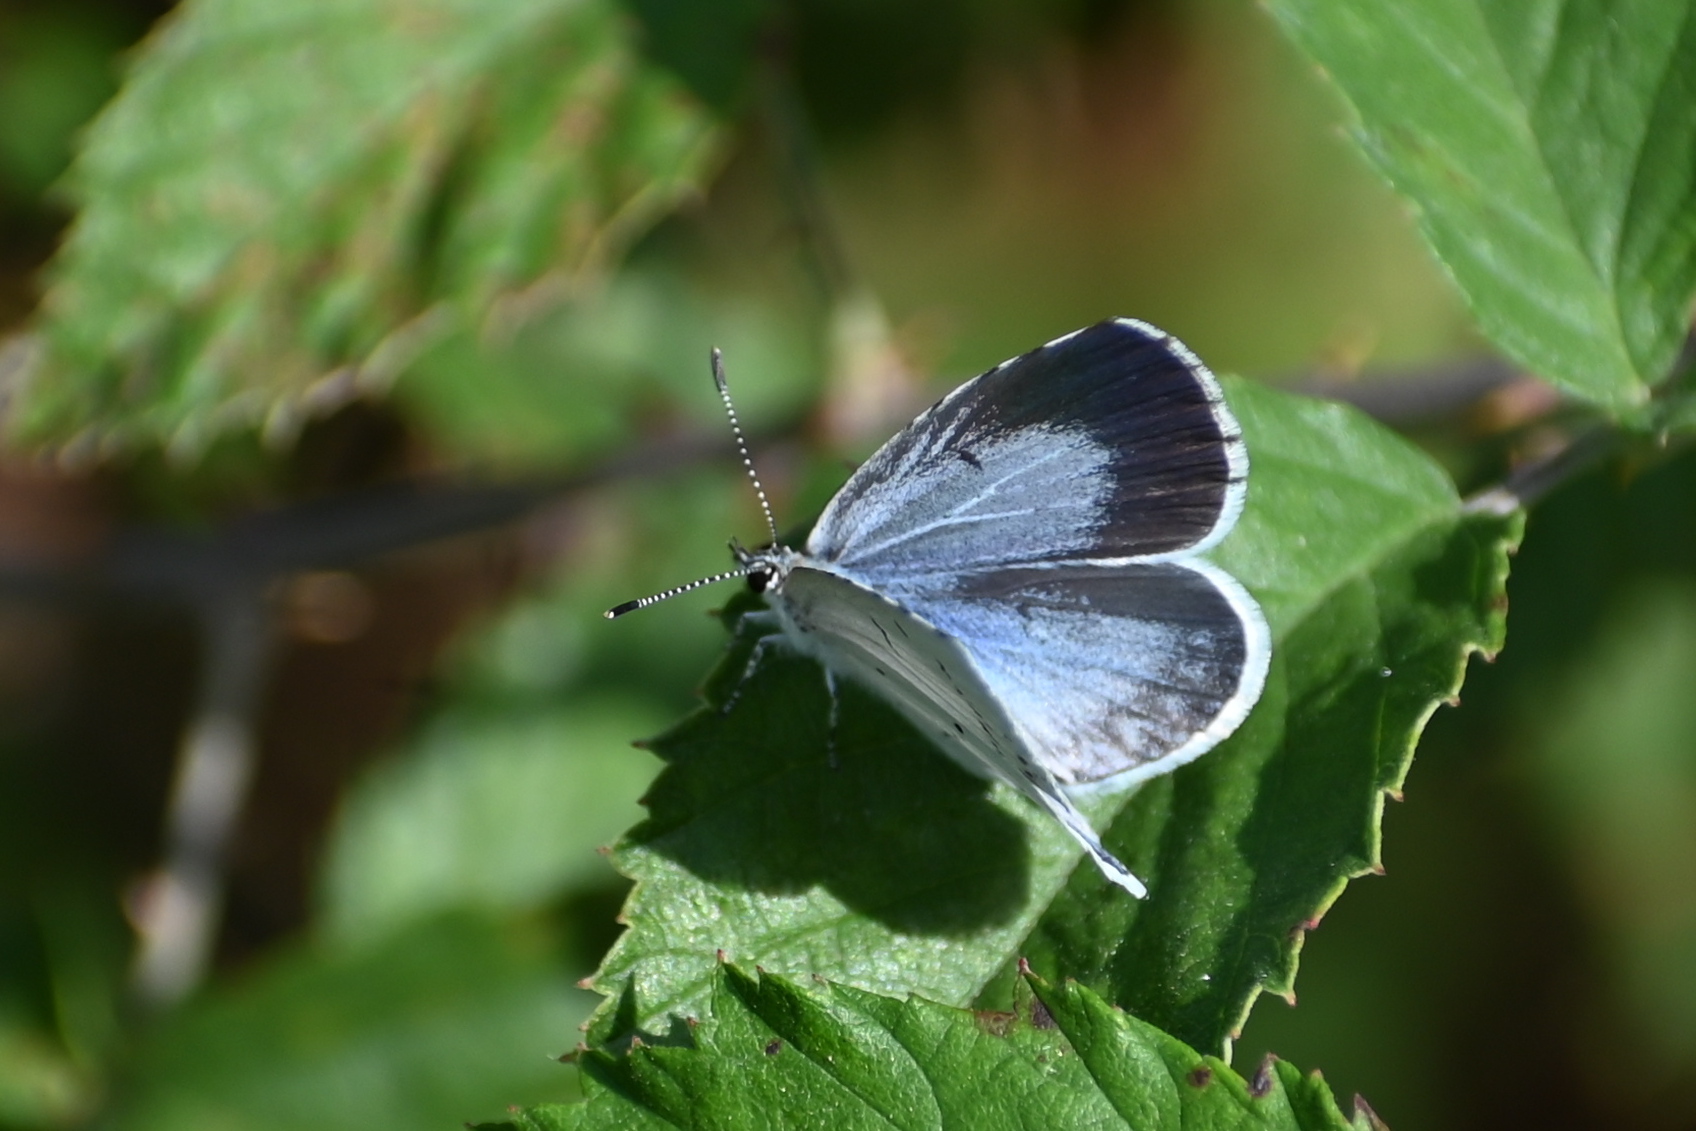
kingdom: Animalia
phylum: Arthropoda
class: Insecta
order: Lepidoptera
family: Lycaenidae
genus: Celastrina
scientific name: Celastrina argiolus
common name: Holly blue
